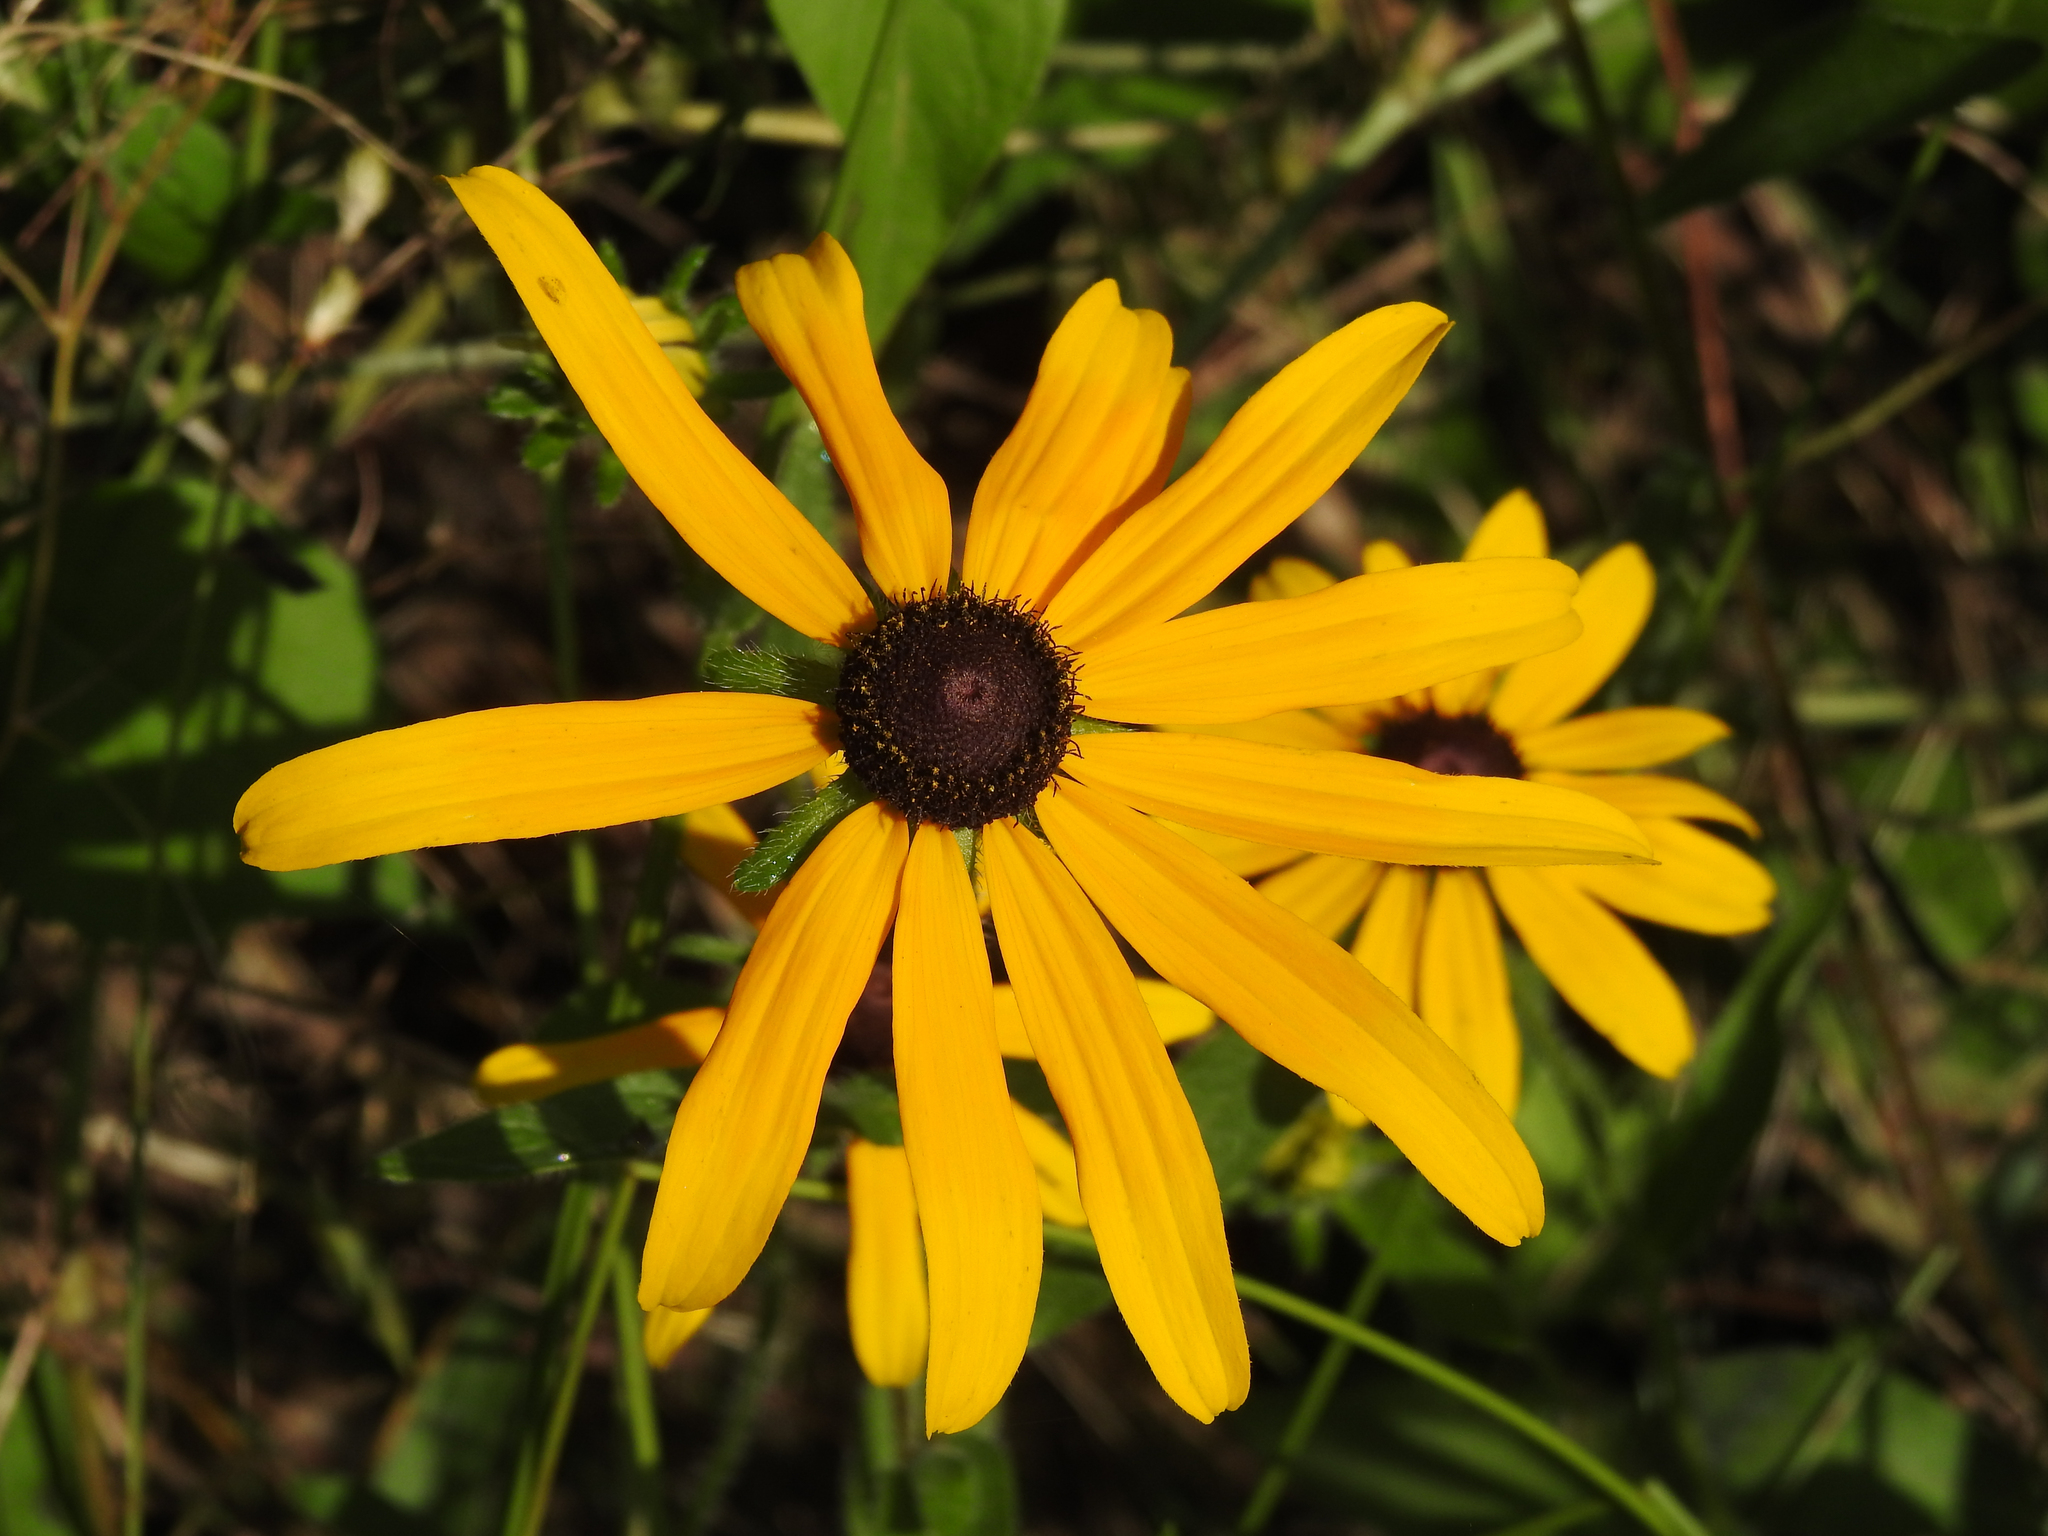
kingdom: Plantae
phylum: Tracheophyta
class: Magnoliopsida
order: Asterales
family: Asteraceae
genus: Rudbeckia
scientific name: Rudbeckia hirta
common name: Black-eyed-susan
